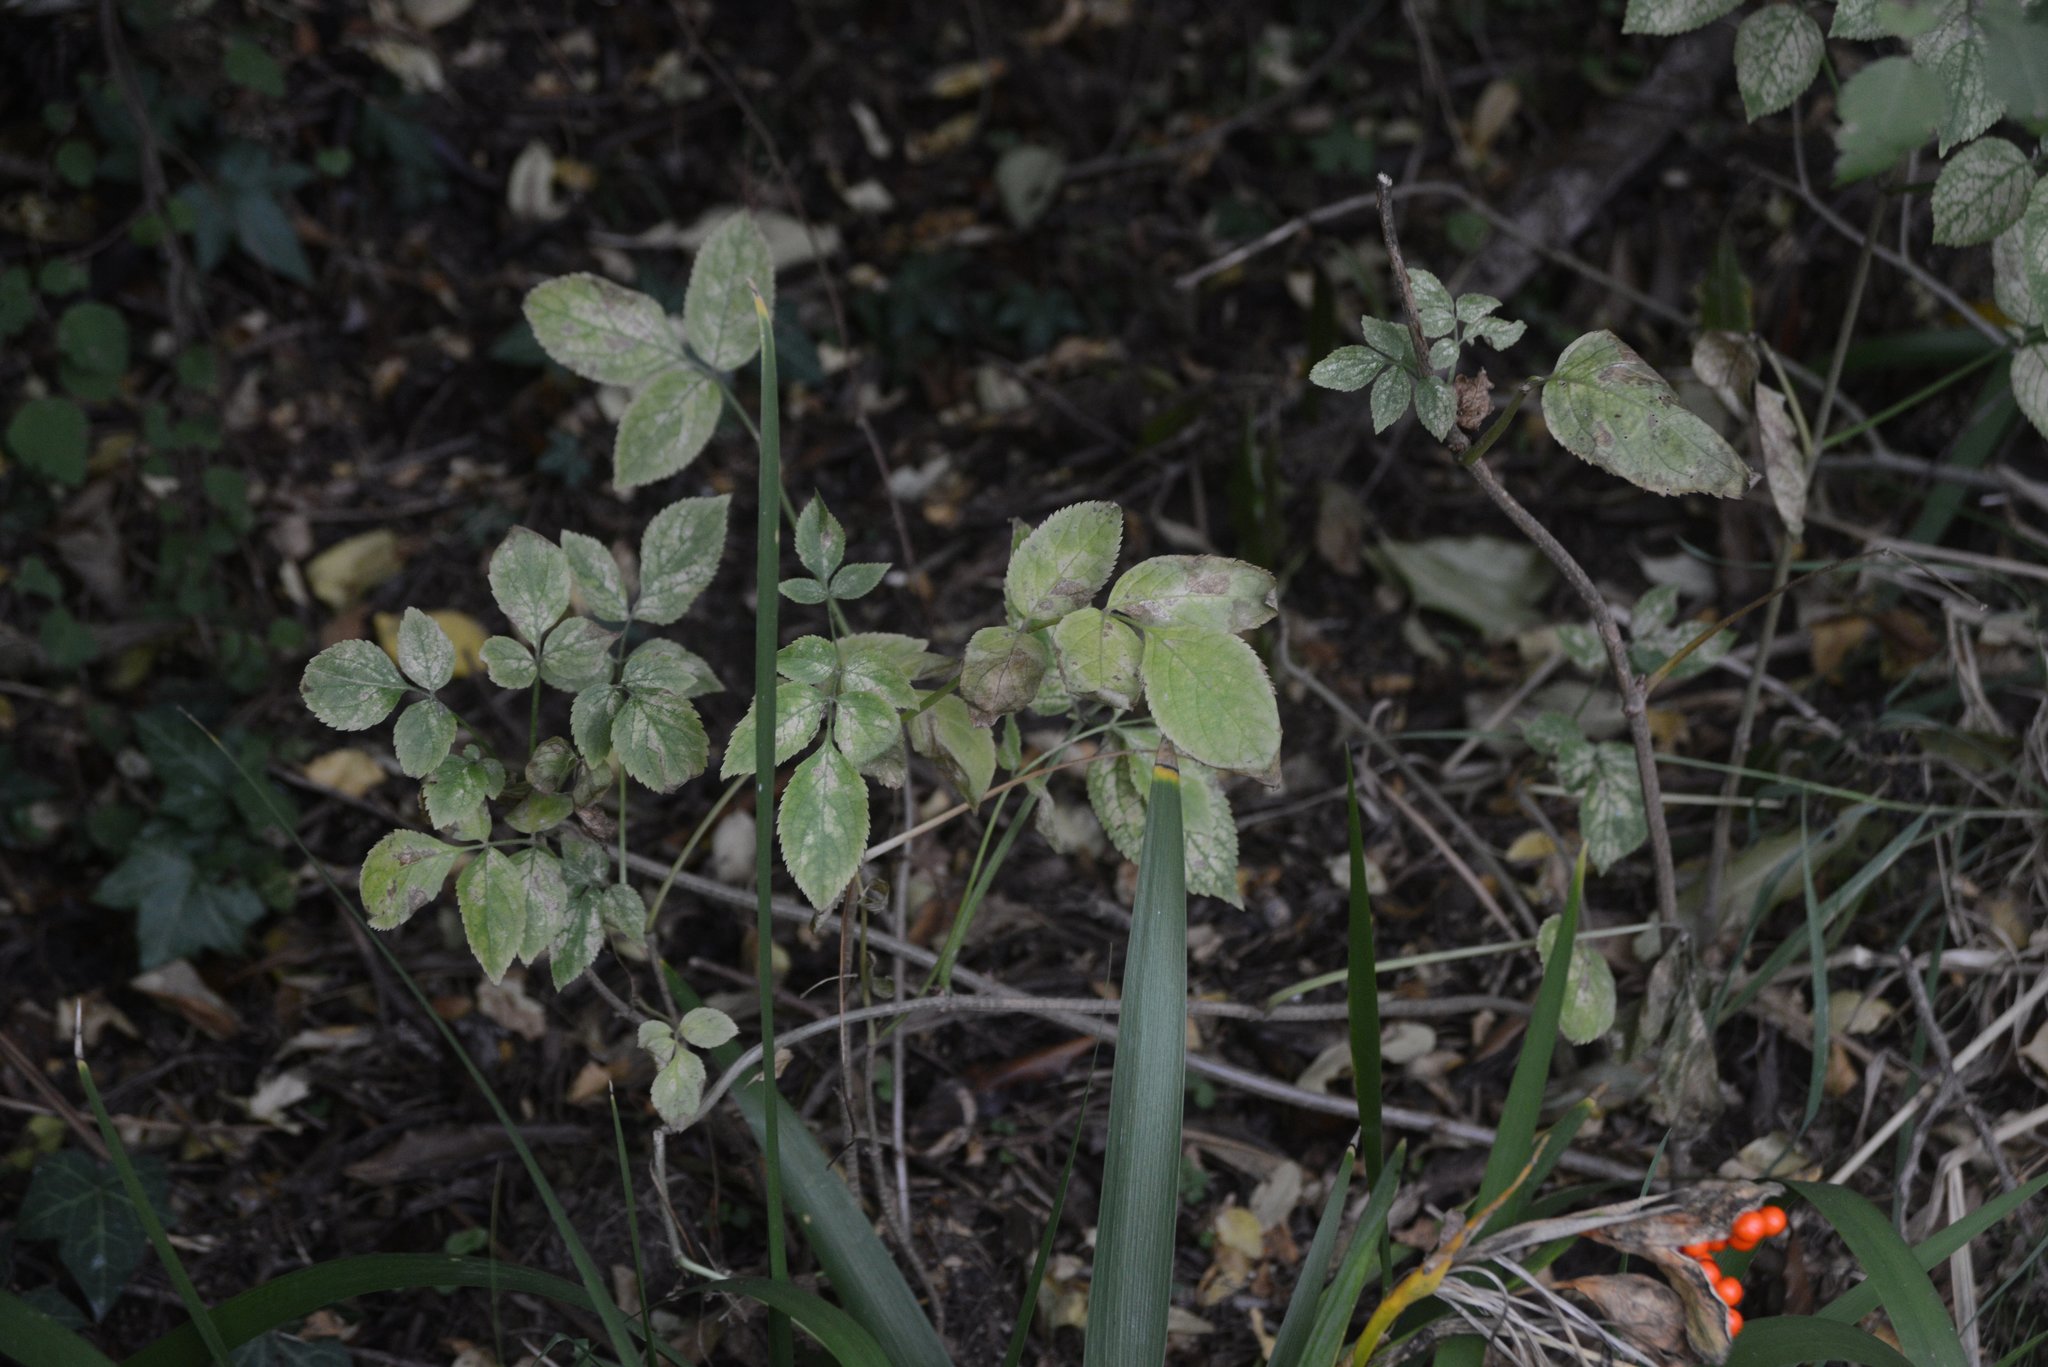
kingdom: Plantae
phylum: Tracheophyta
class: Magnoliopsida
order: Dipsacales
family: Viburnaceae
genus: Sambucus
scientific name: Sambucus nigra
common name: Elder
